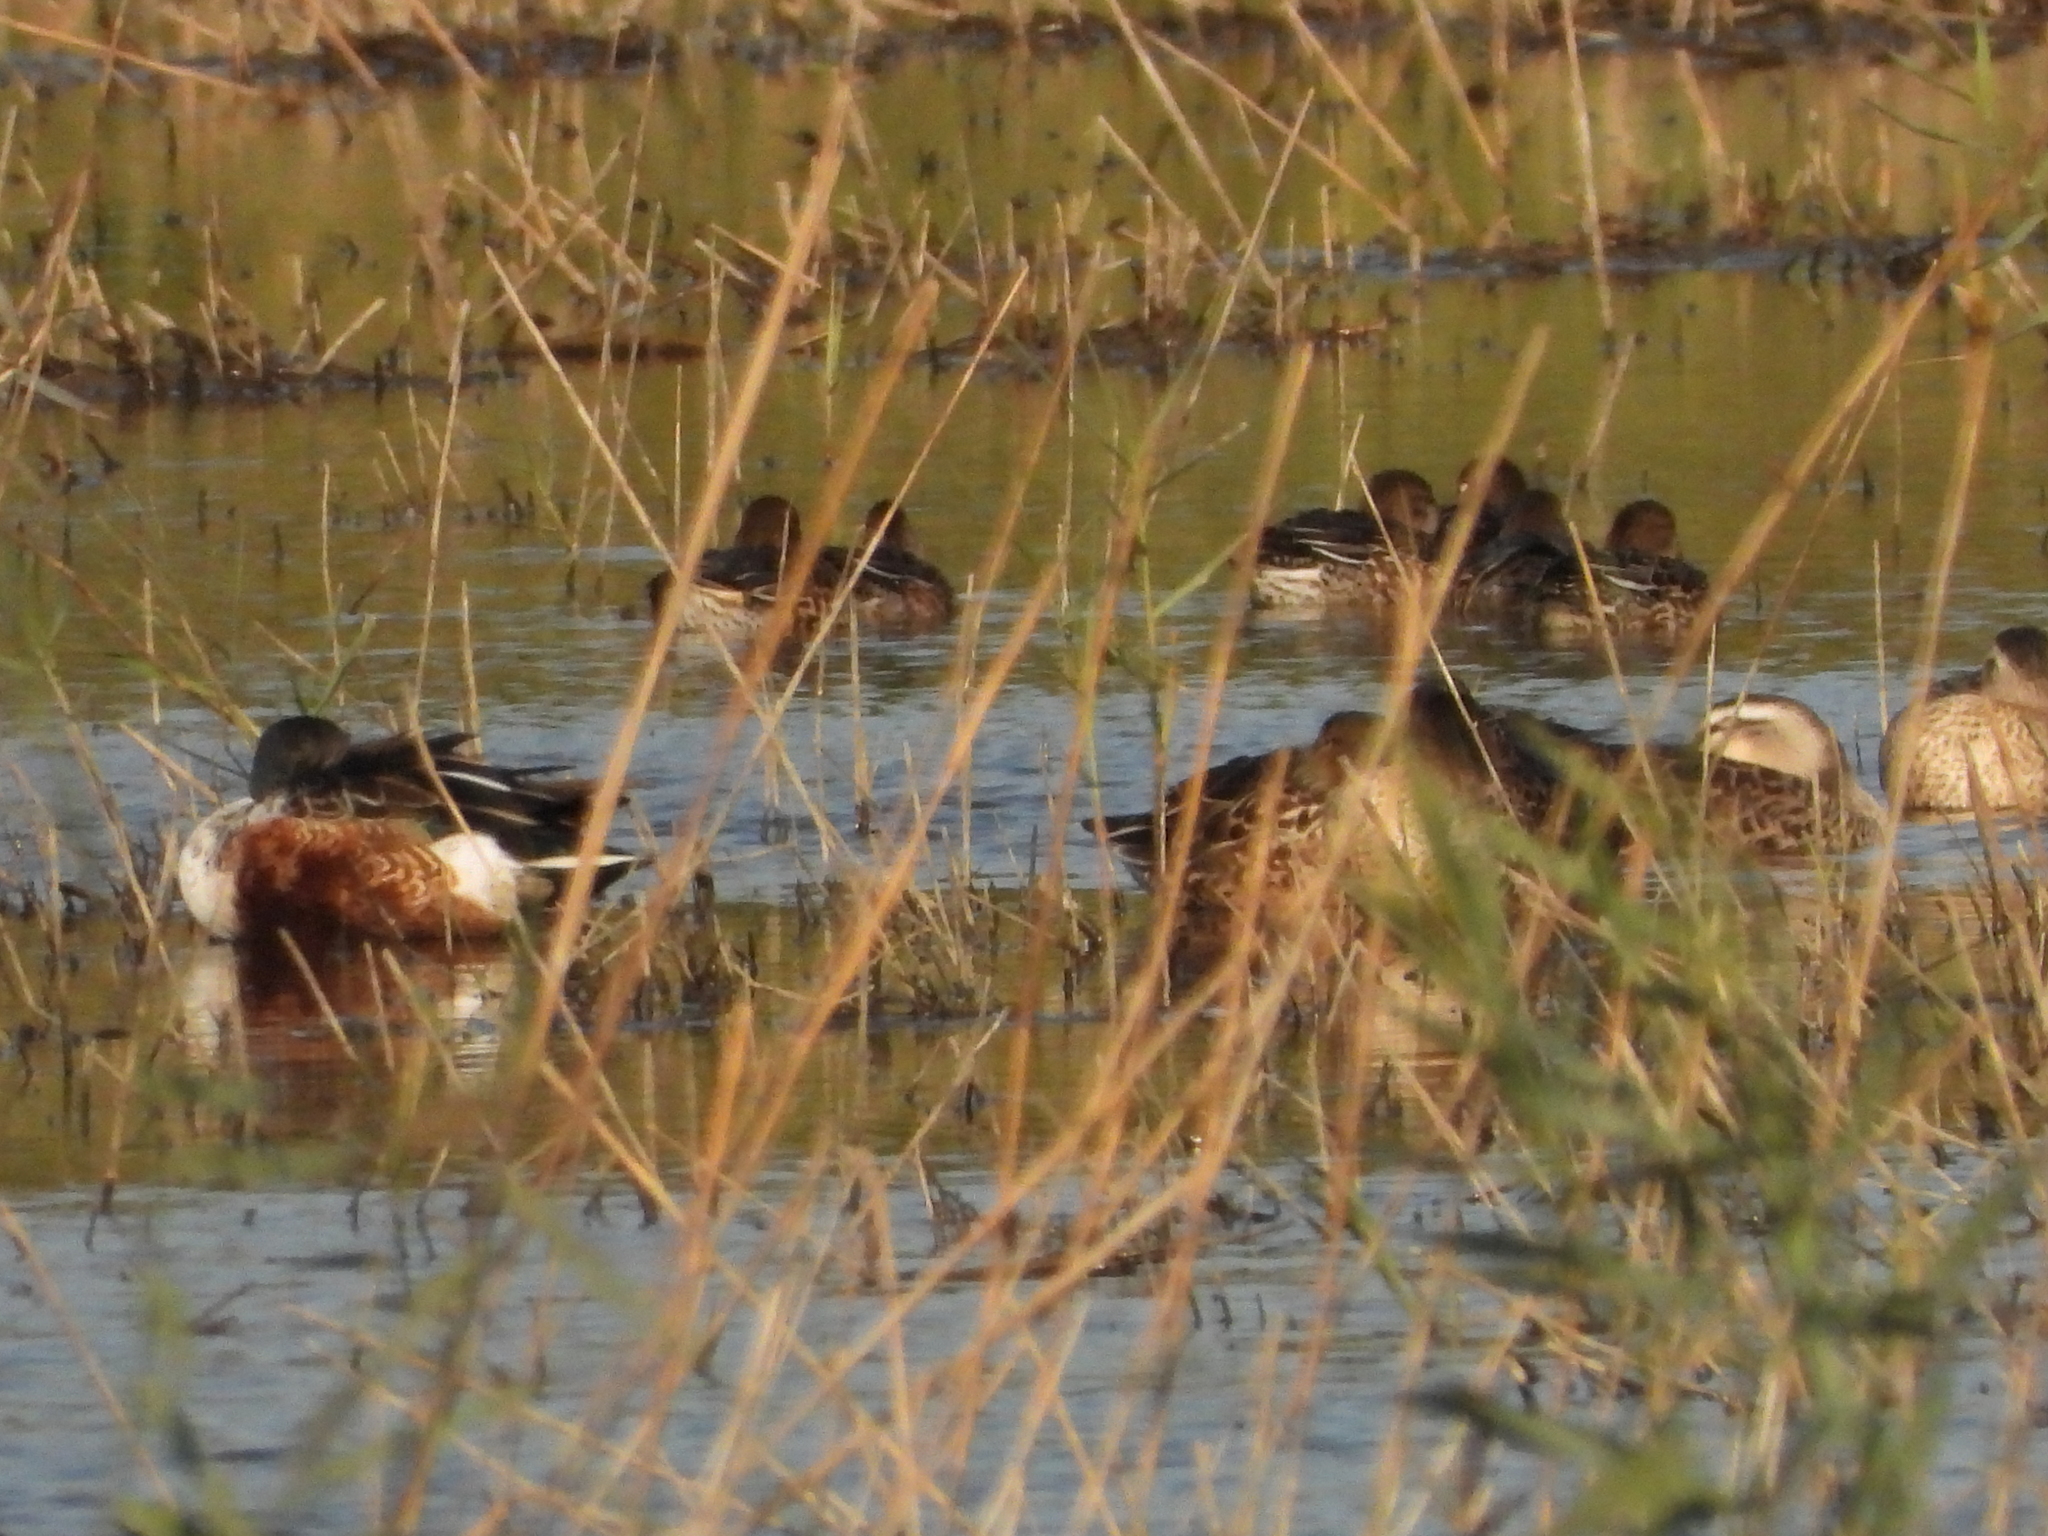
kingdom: Animalia
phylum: Chordata
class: Aves
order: Anseriformes
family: Anatidae
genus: Spatula
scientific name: Spatula clypeata
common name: Northern shoveler
